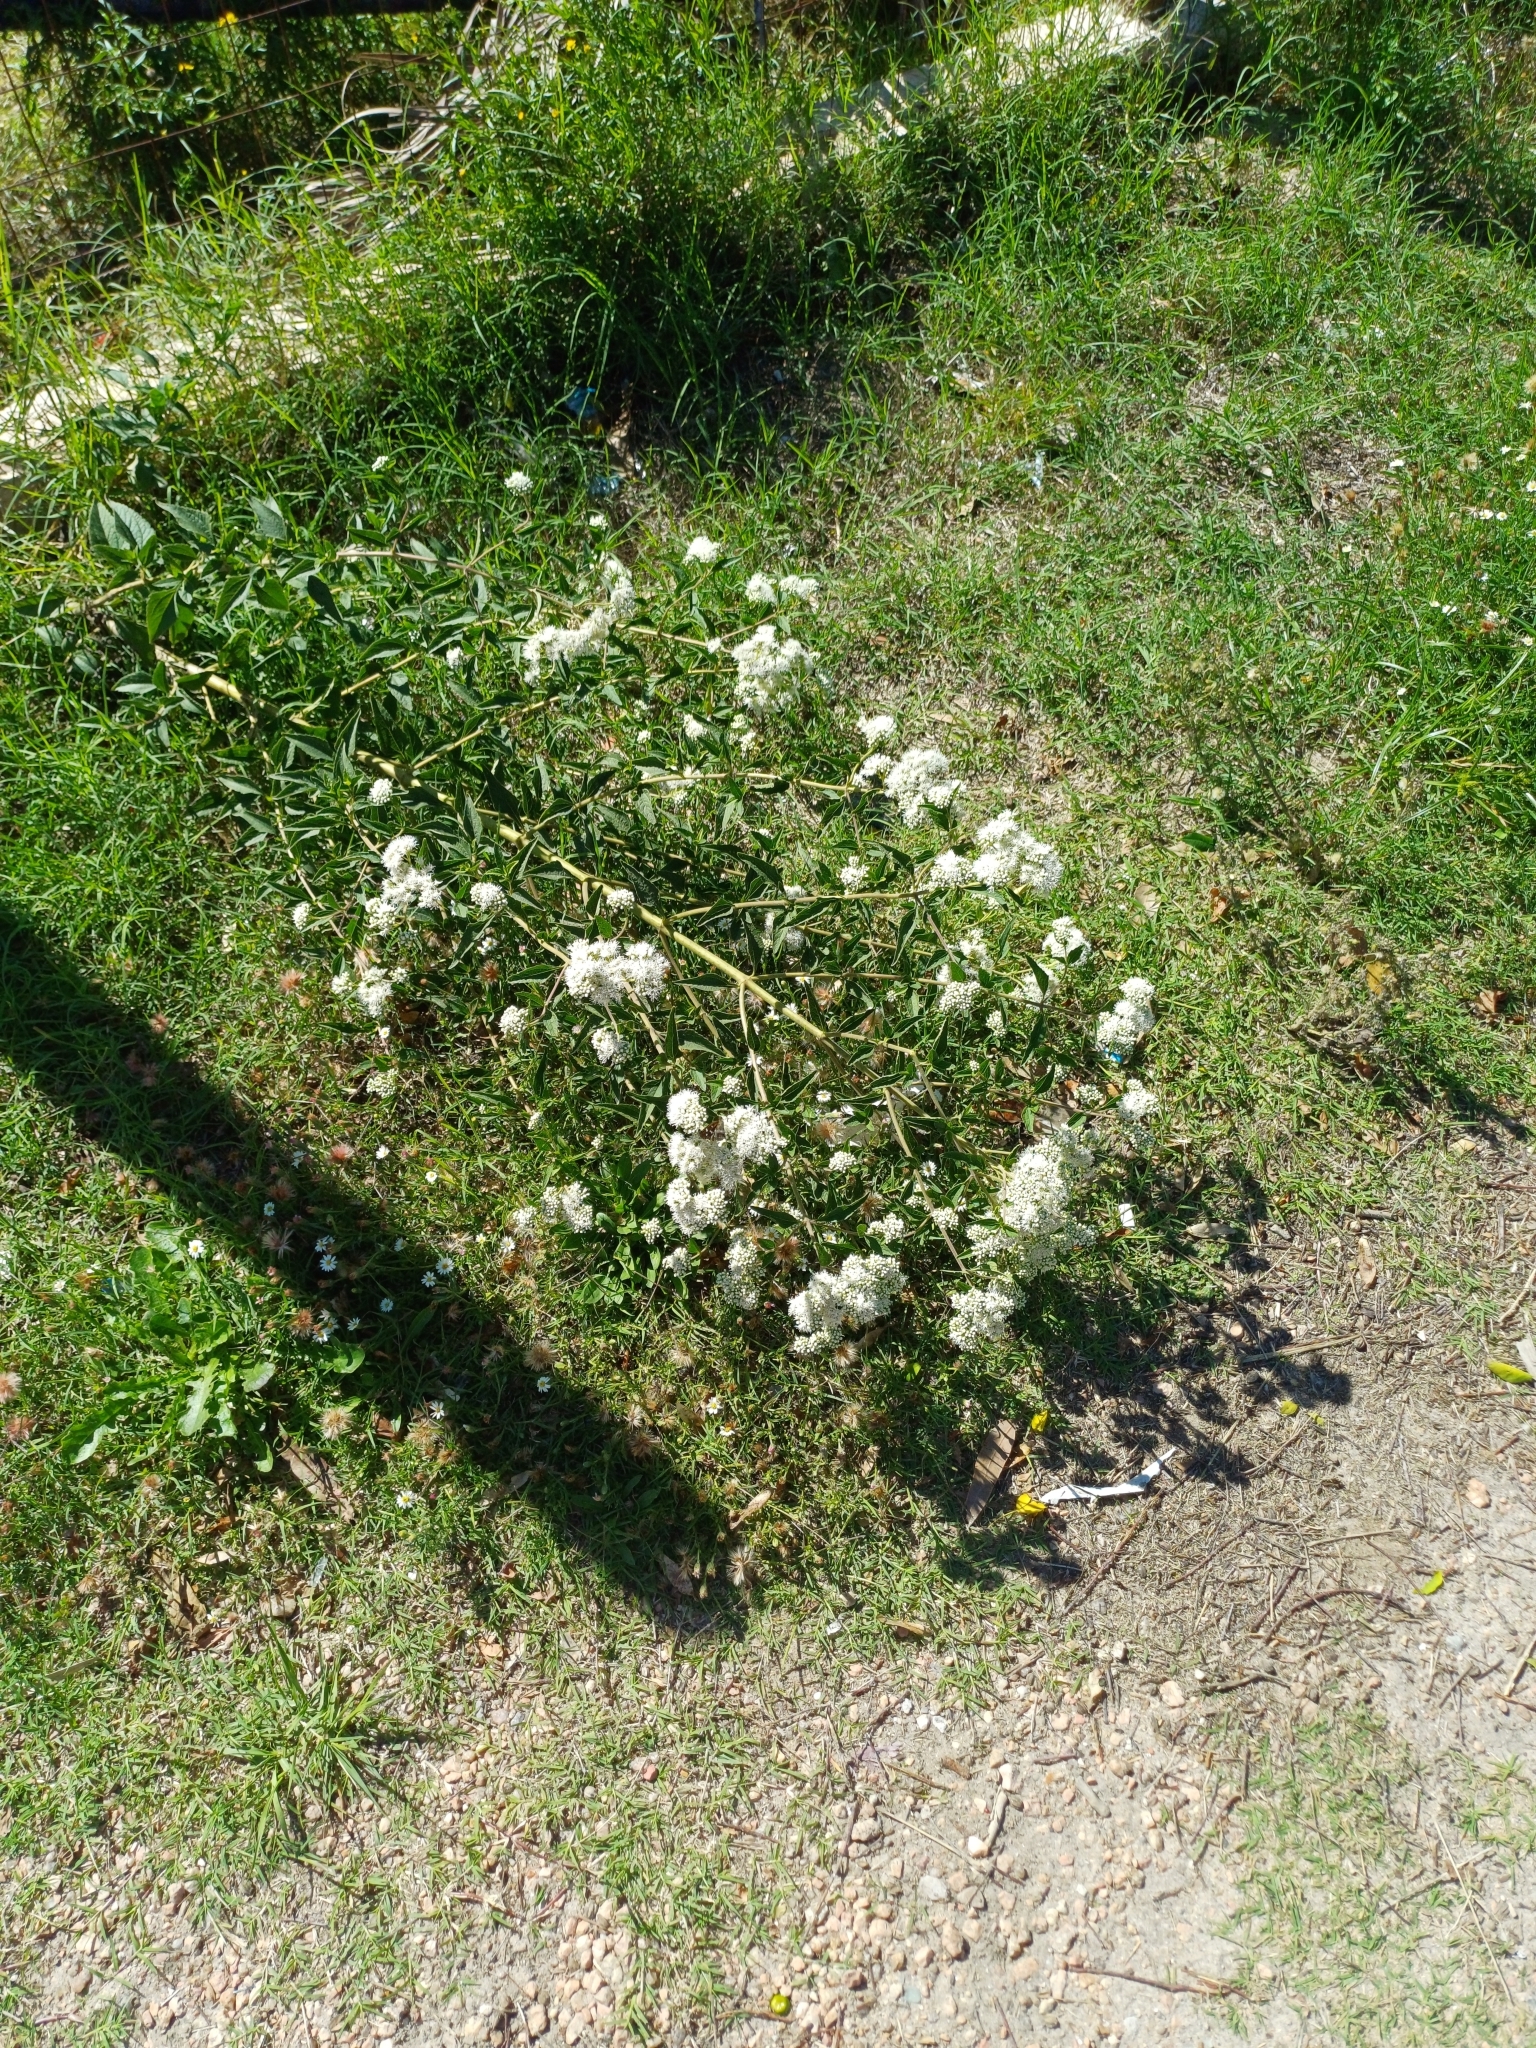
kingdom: Plantae
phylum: Tracheophyta
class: Magnoliopsida
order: Asterales
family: Asteraceae
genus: Austroeupatorium
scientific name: Austroeupatorium inulifolium
